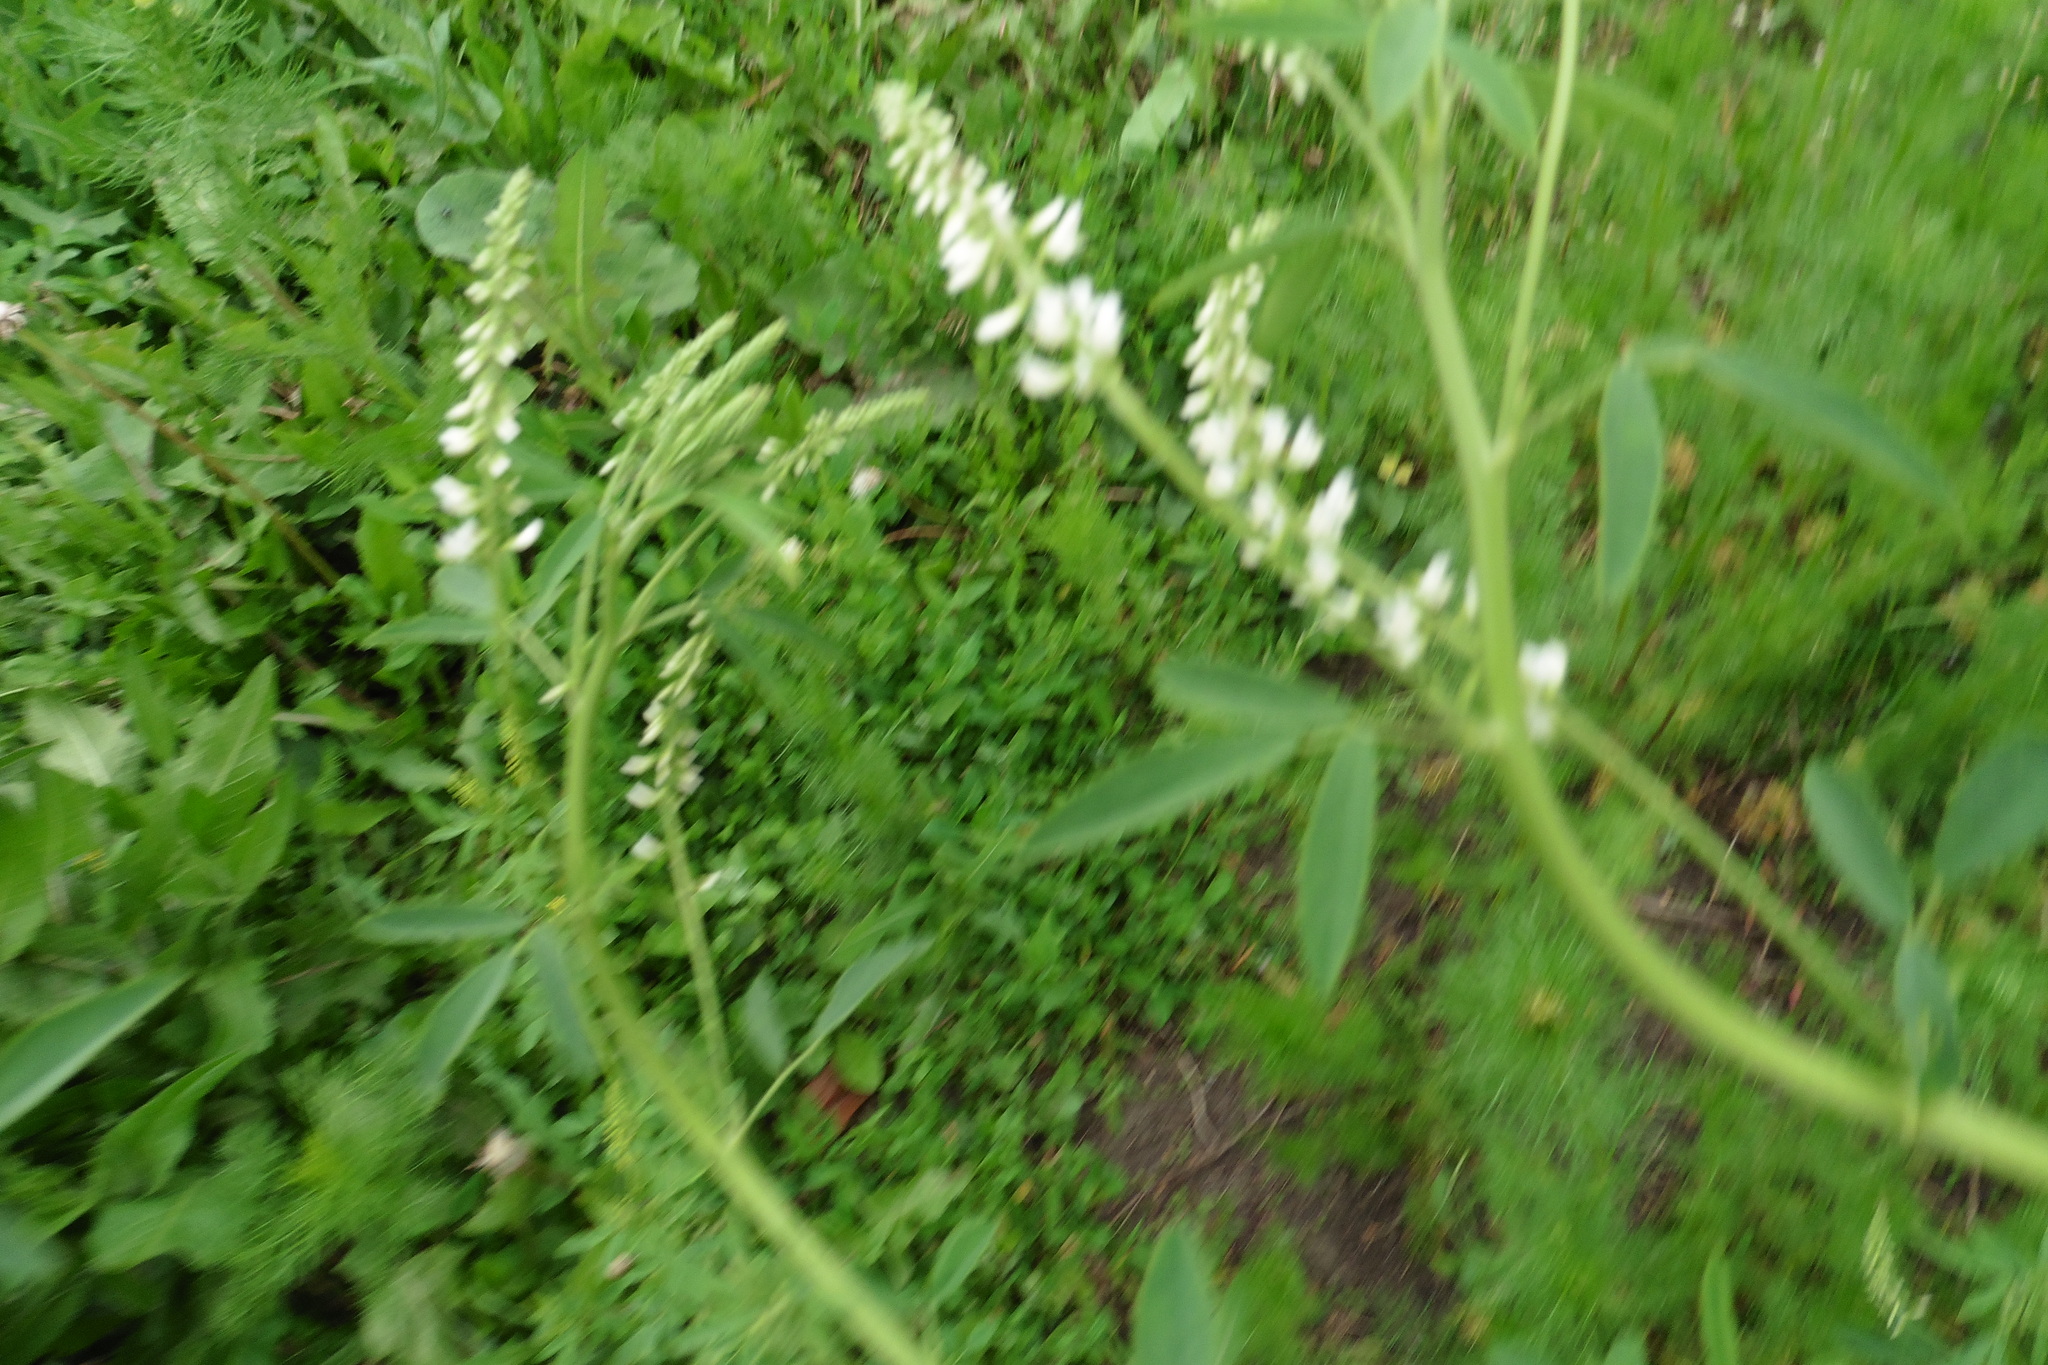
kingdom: Plantae
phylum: Tracheophyta
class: Magnoliopsida
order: Fabales
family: Fabaceae
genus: Melilotus
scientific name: Melilotus albus
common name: White melilot
